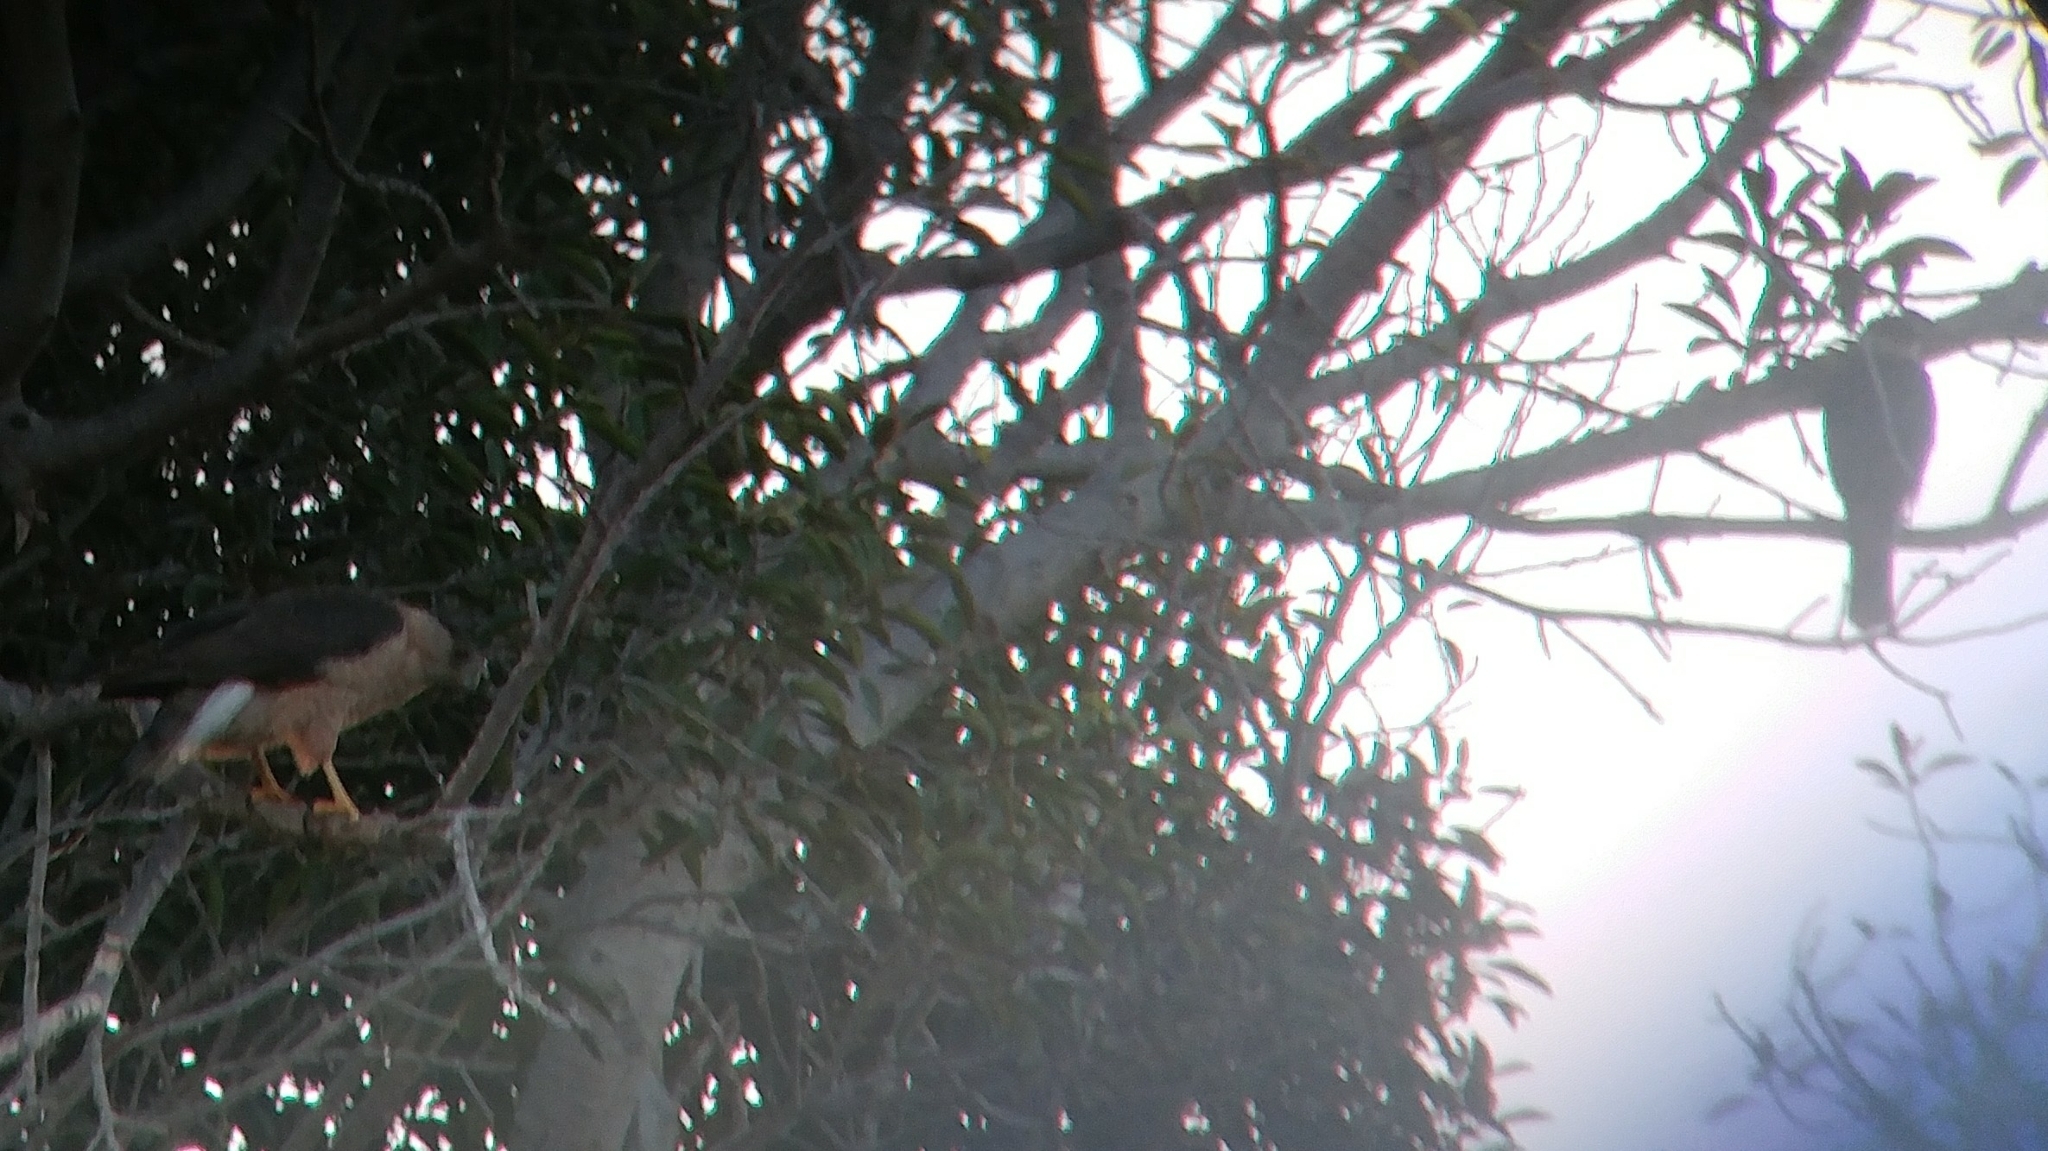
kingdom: Animalia
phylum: Chordata
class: Aves
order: Accipitriformes
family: Accipitridae
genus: Accipiter
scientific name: Accipiter cooperii
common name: Cooper's hawk
